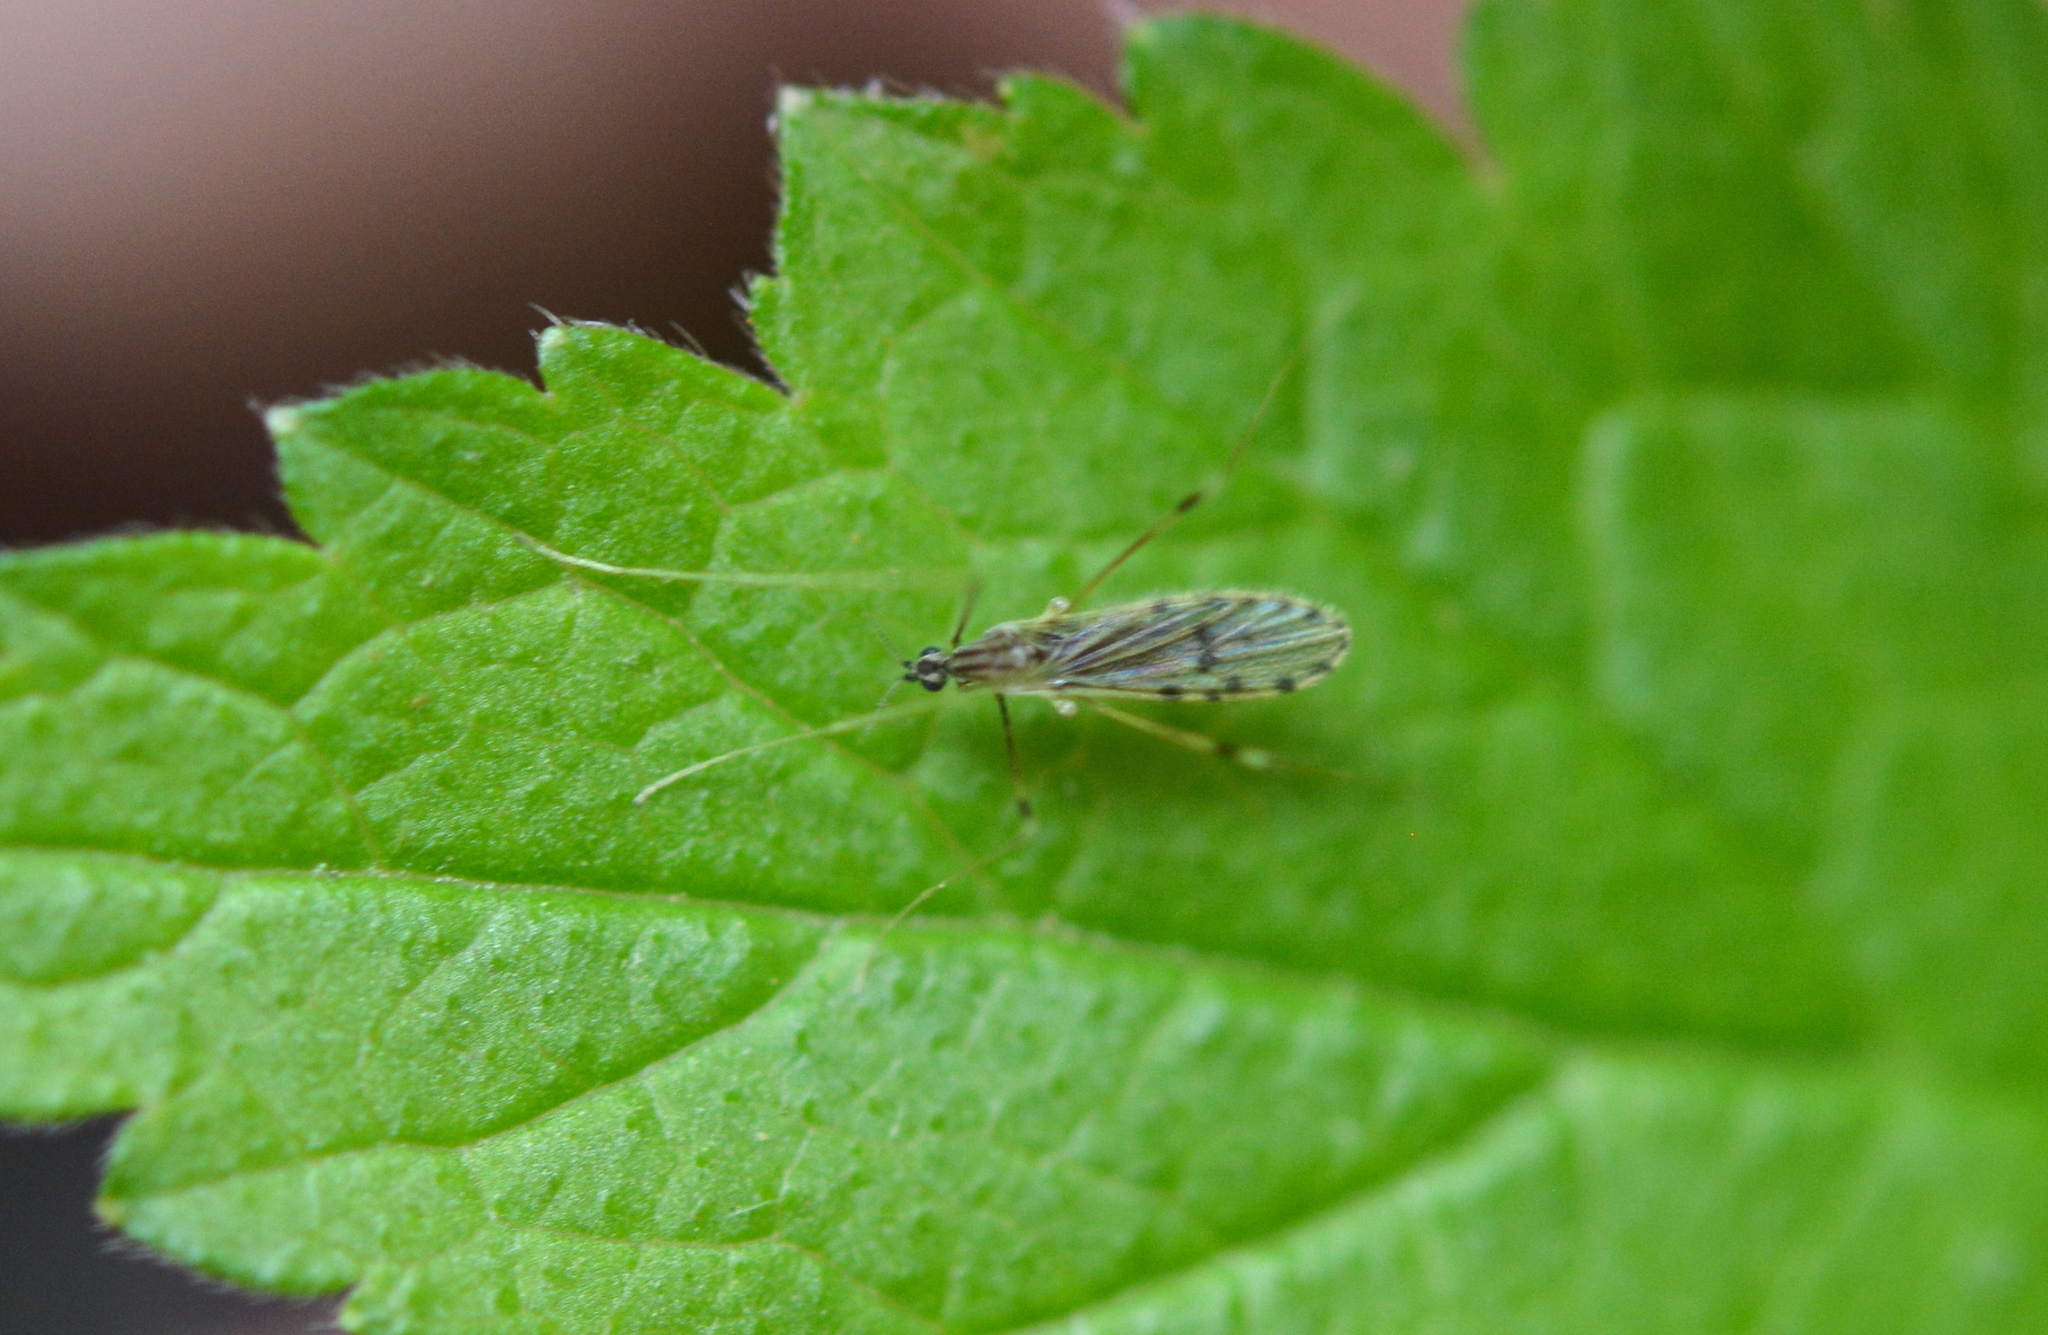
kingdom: Animalia
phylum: Arthropoda
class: Insecta
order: Diptera
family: Limoniidae
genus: Erioptera
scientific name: Erioptera parva
